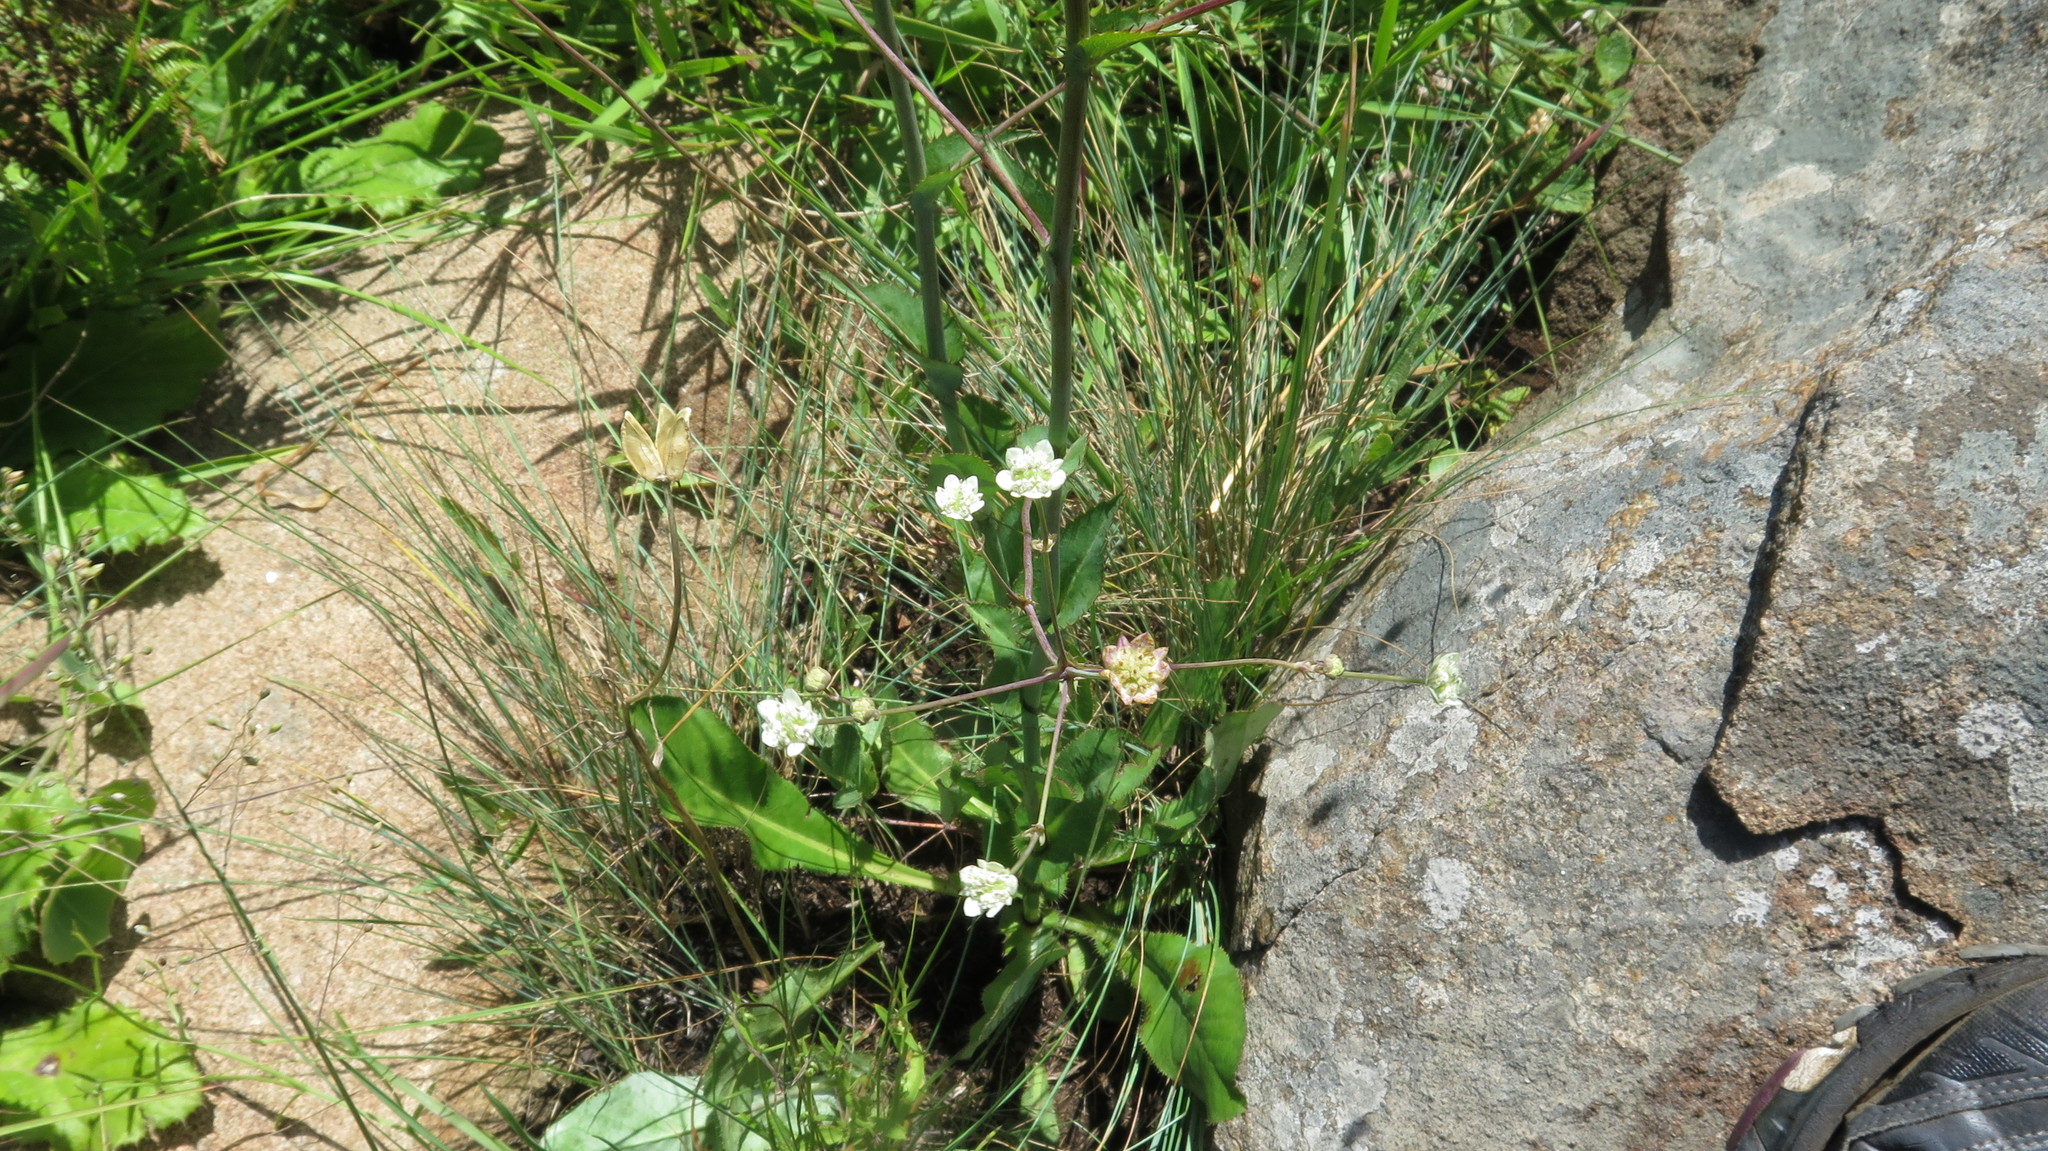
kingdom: Plantae
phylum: Tracheophyta
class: Magnoliopsida
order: Apiales
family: Apiaceae
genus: Alepidea
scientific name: Alepidea woodii
